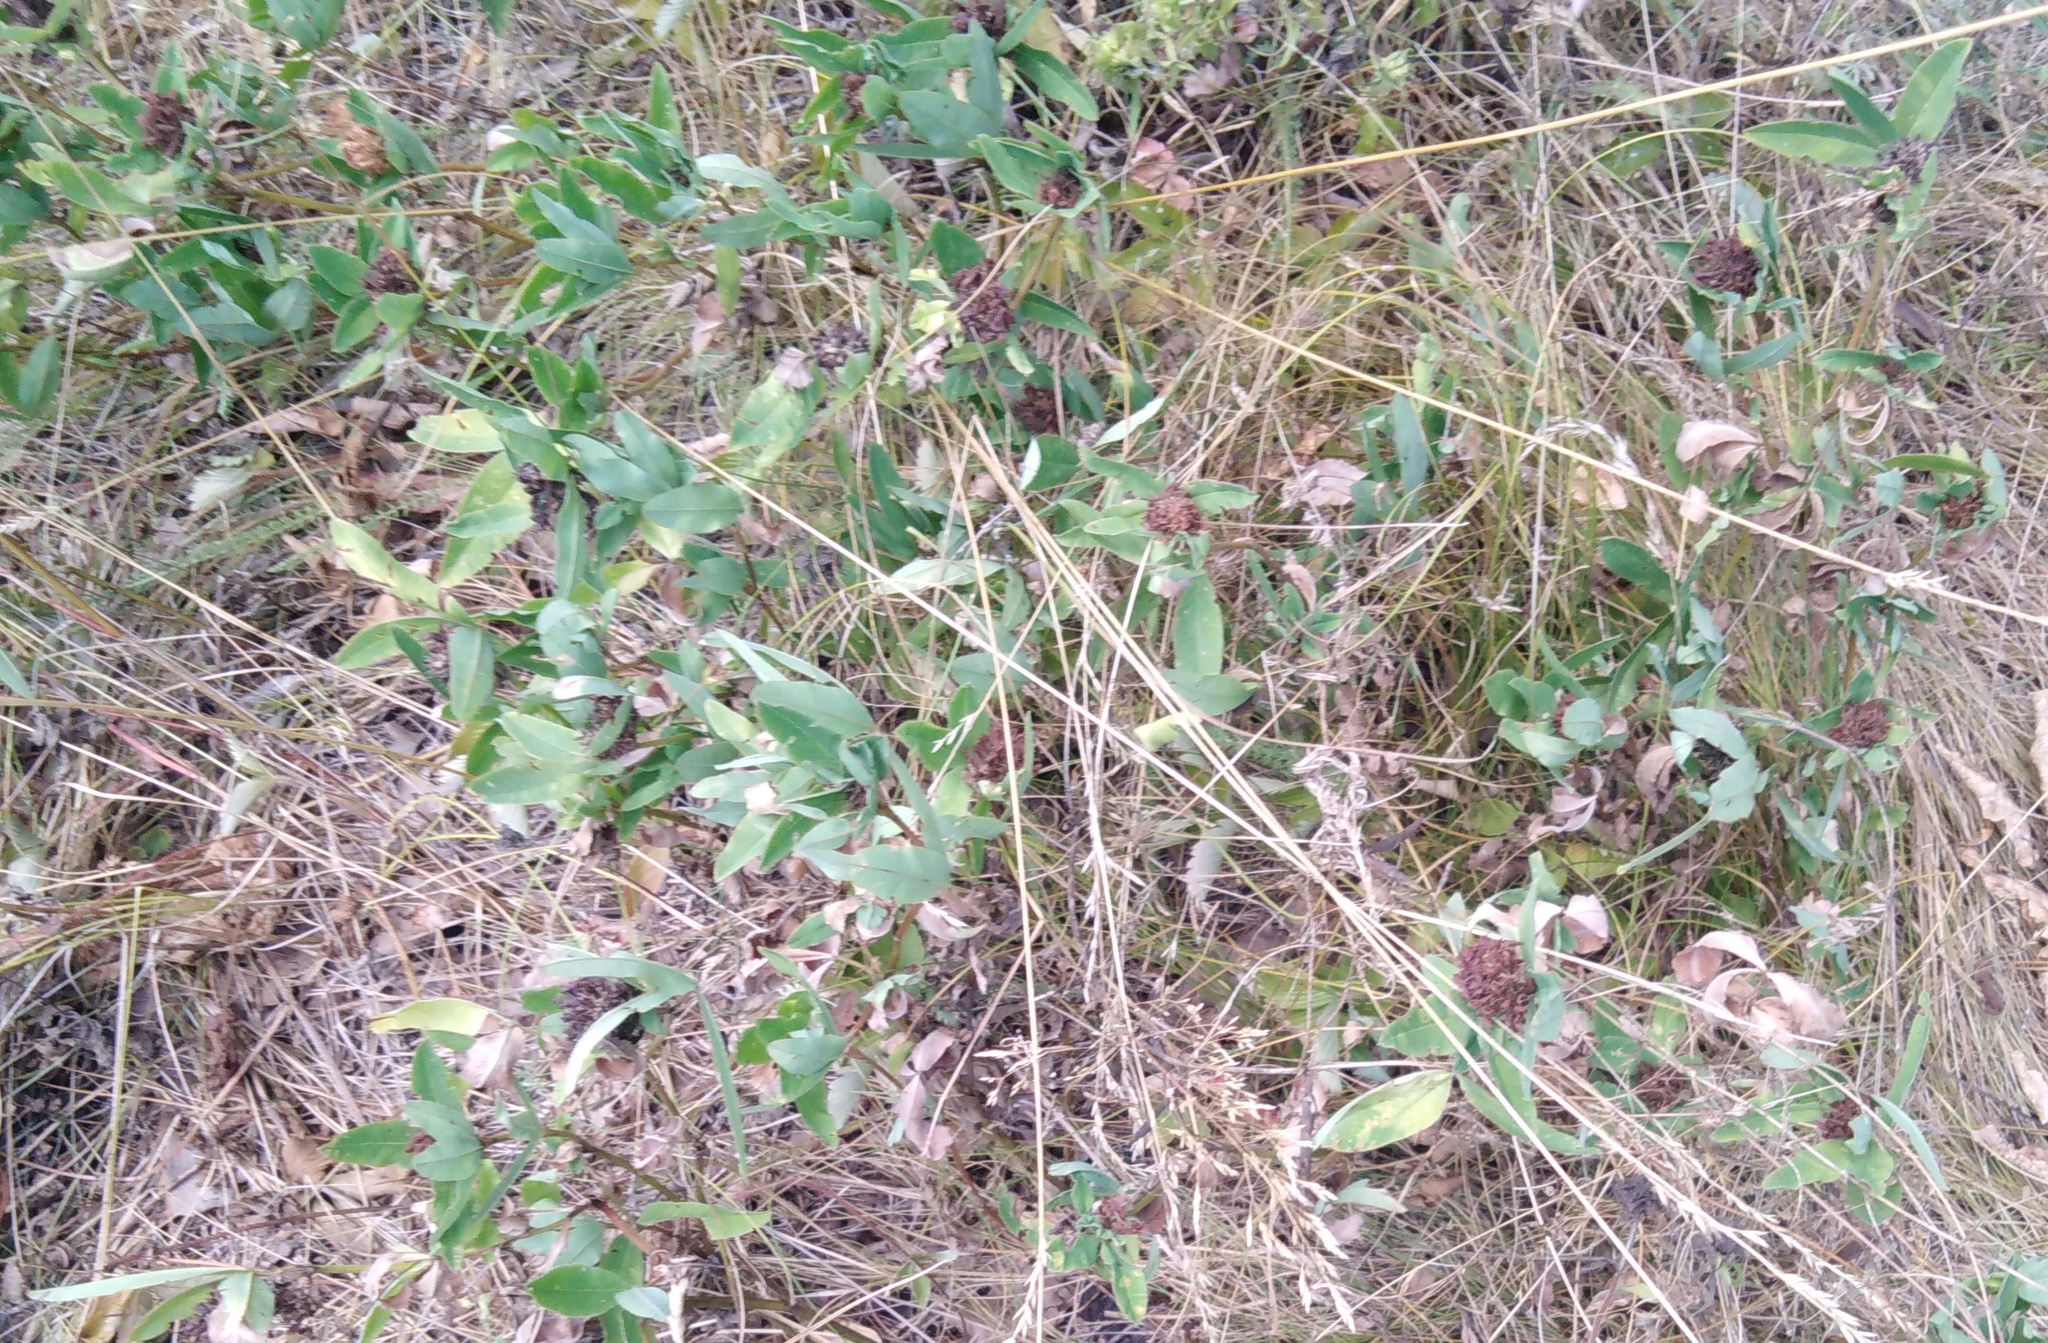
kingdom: Plantae
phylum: Tracheophyta
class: Magnoliopsida
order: Fabales
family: Fabaceae
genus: Trifolium
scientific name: Trifolium pratense
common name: Red clover
